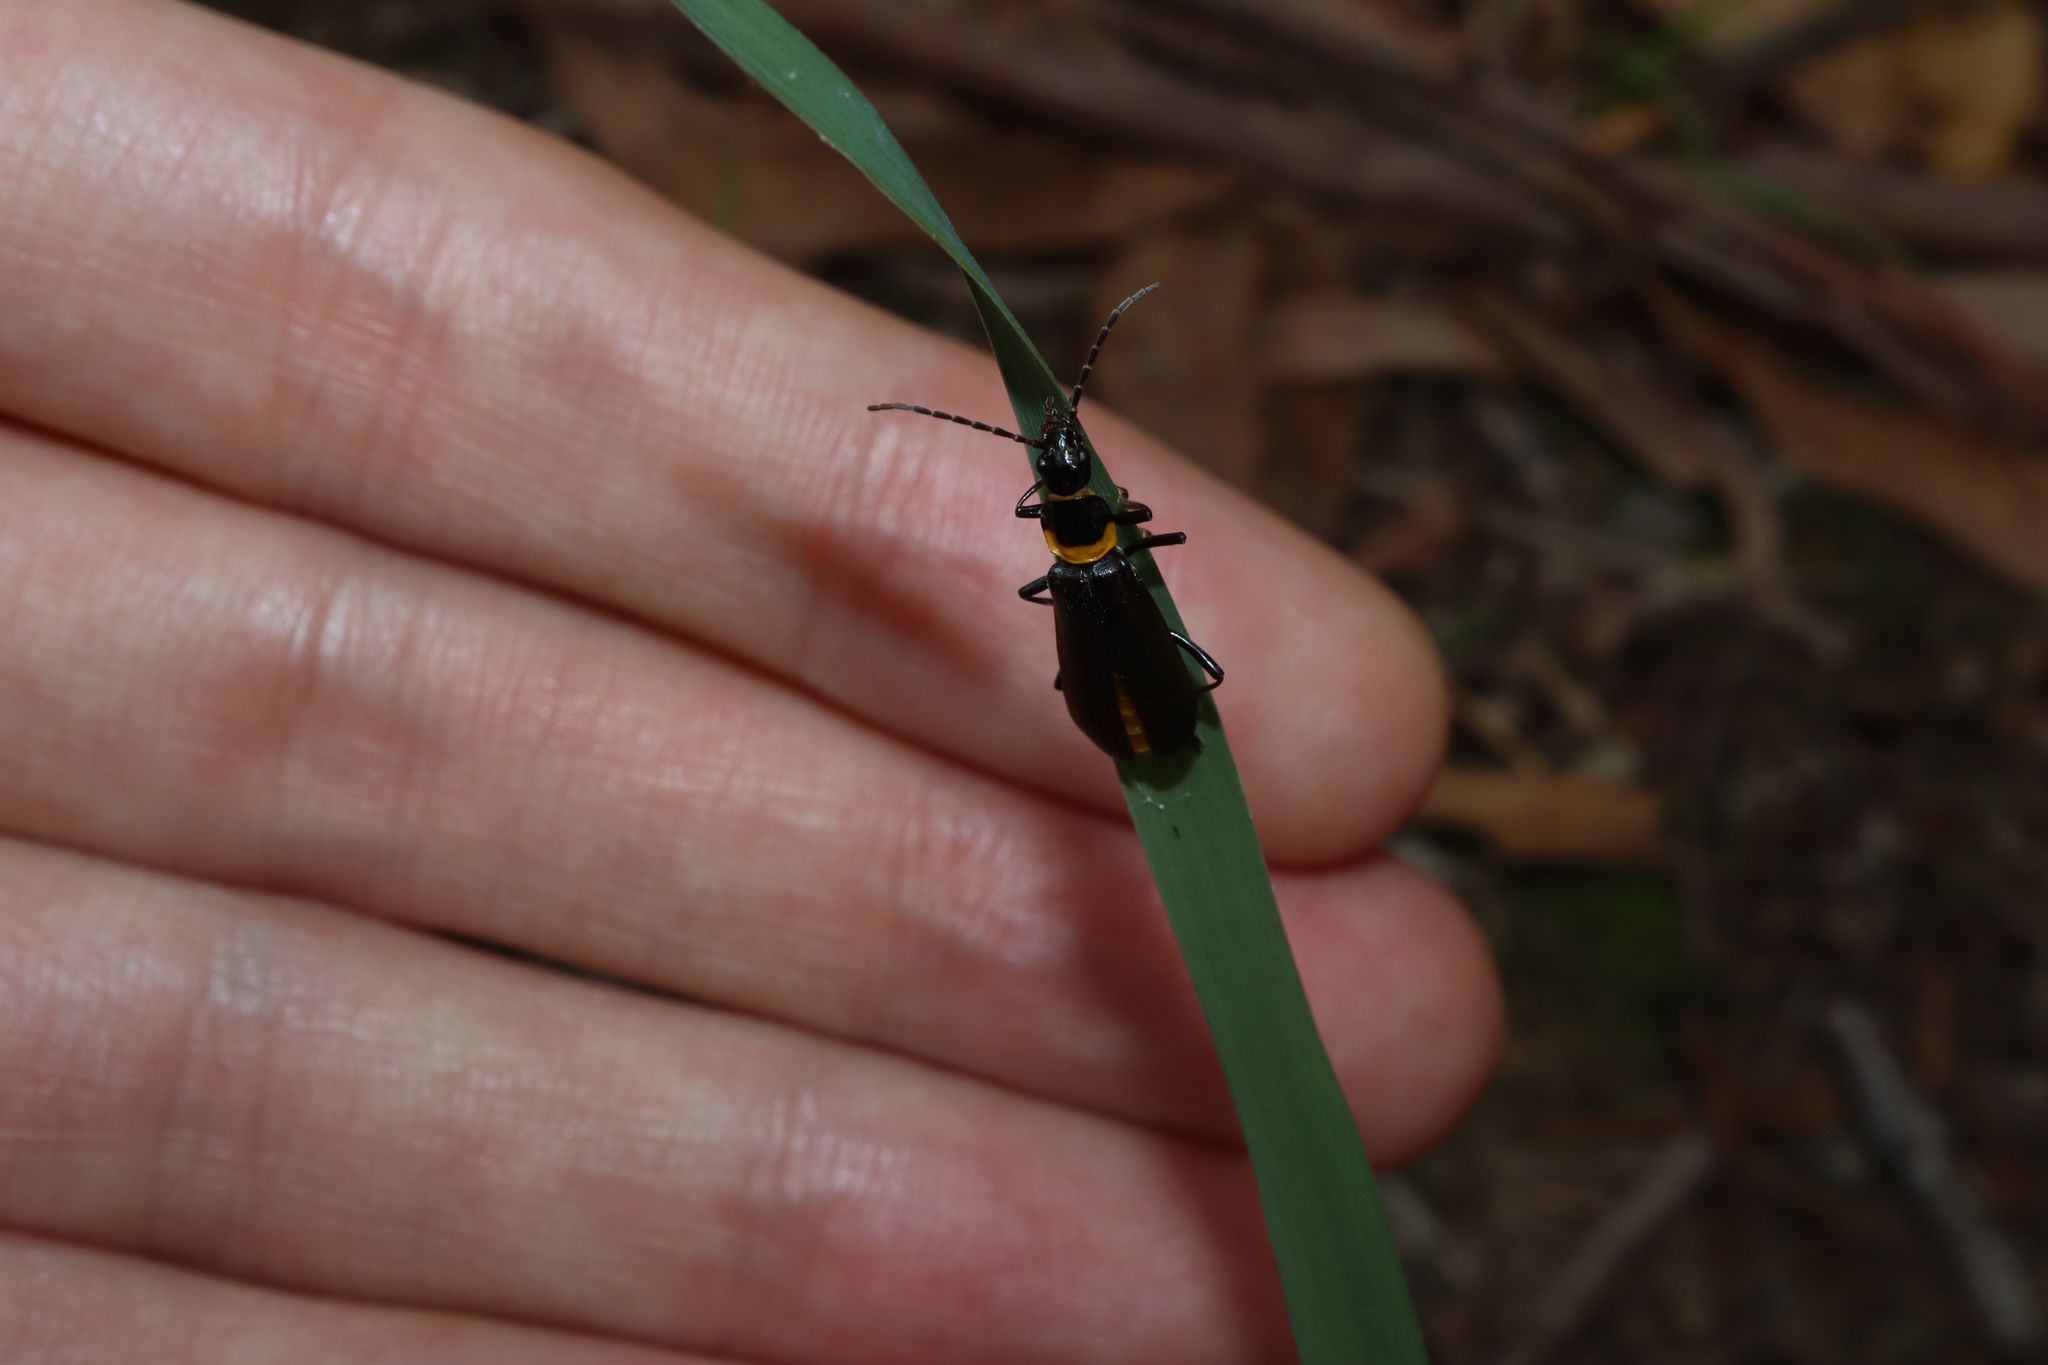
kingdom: Animalia
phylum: Arthropoda
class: Insecta
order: Coleoptera
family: Cantharidae
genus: Chauliognathus
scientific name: Chauliognathus
